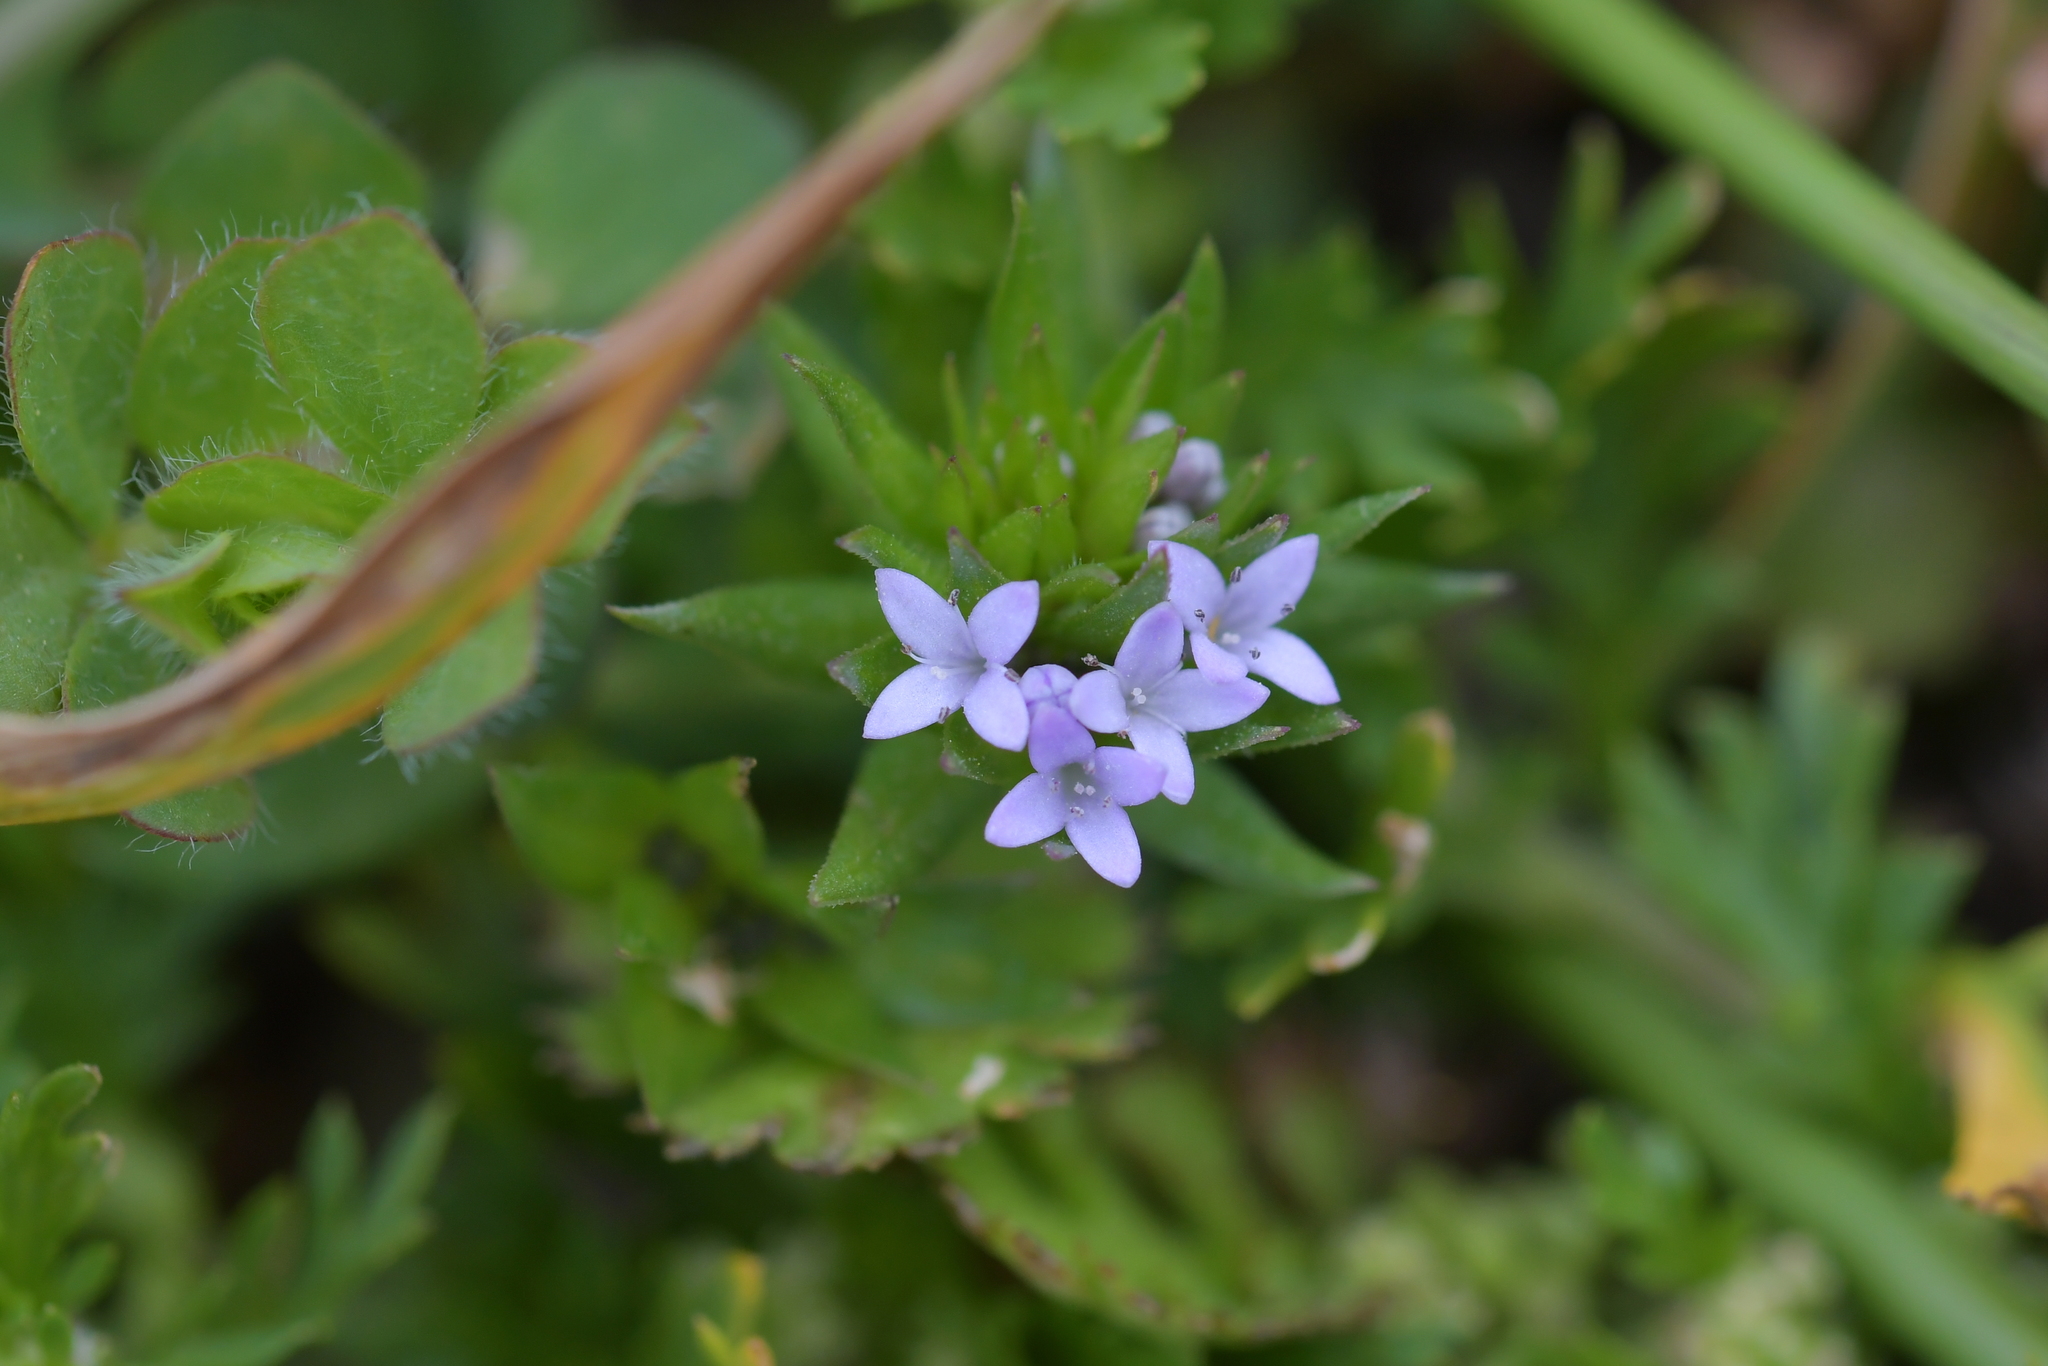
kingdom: Plantae
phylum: Tracheophyta
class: Magnoliopsida
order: Gentianales
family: Rubiaceae
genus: Sherardia
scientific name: Sherardia arvensis
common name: Field madder
